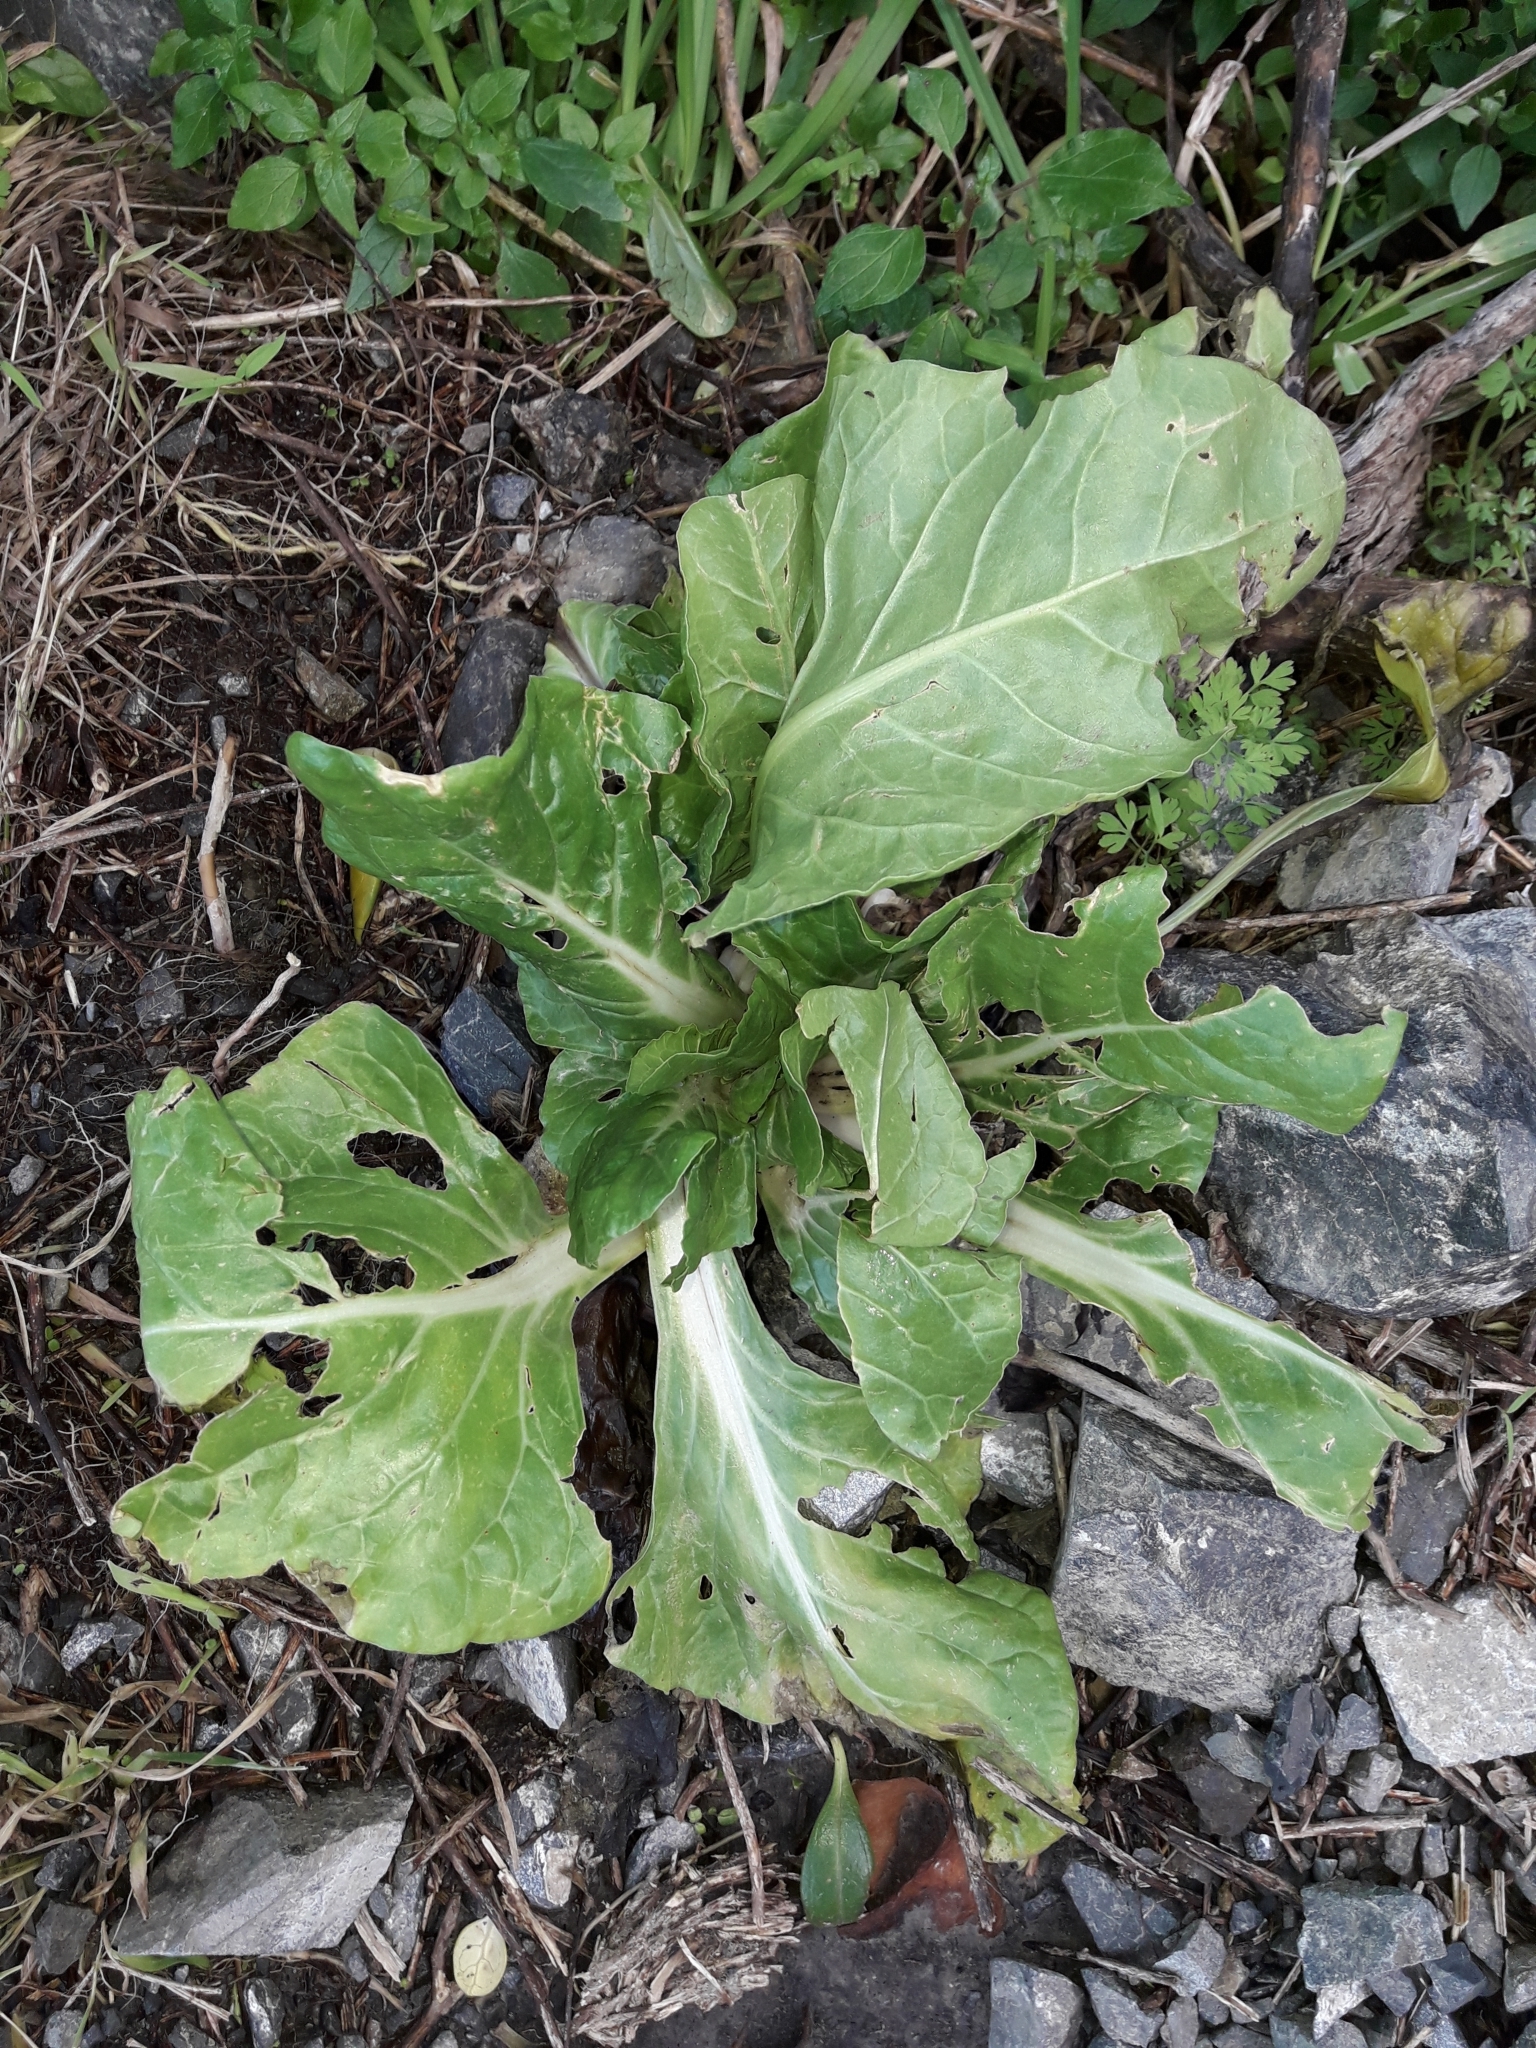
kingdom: Plantae
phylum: Tracheophyta
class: Magnoliopsida
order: Caryophyllales
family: Amaranthaceae
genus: Beta
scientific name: Beta vulgaris
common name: Beet
